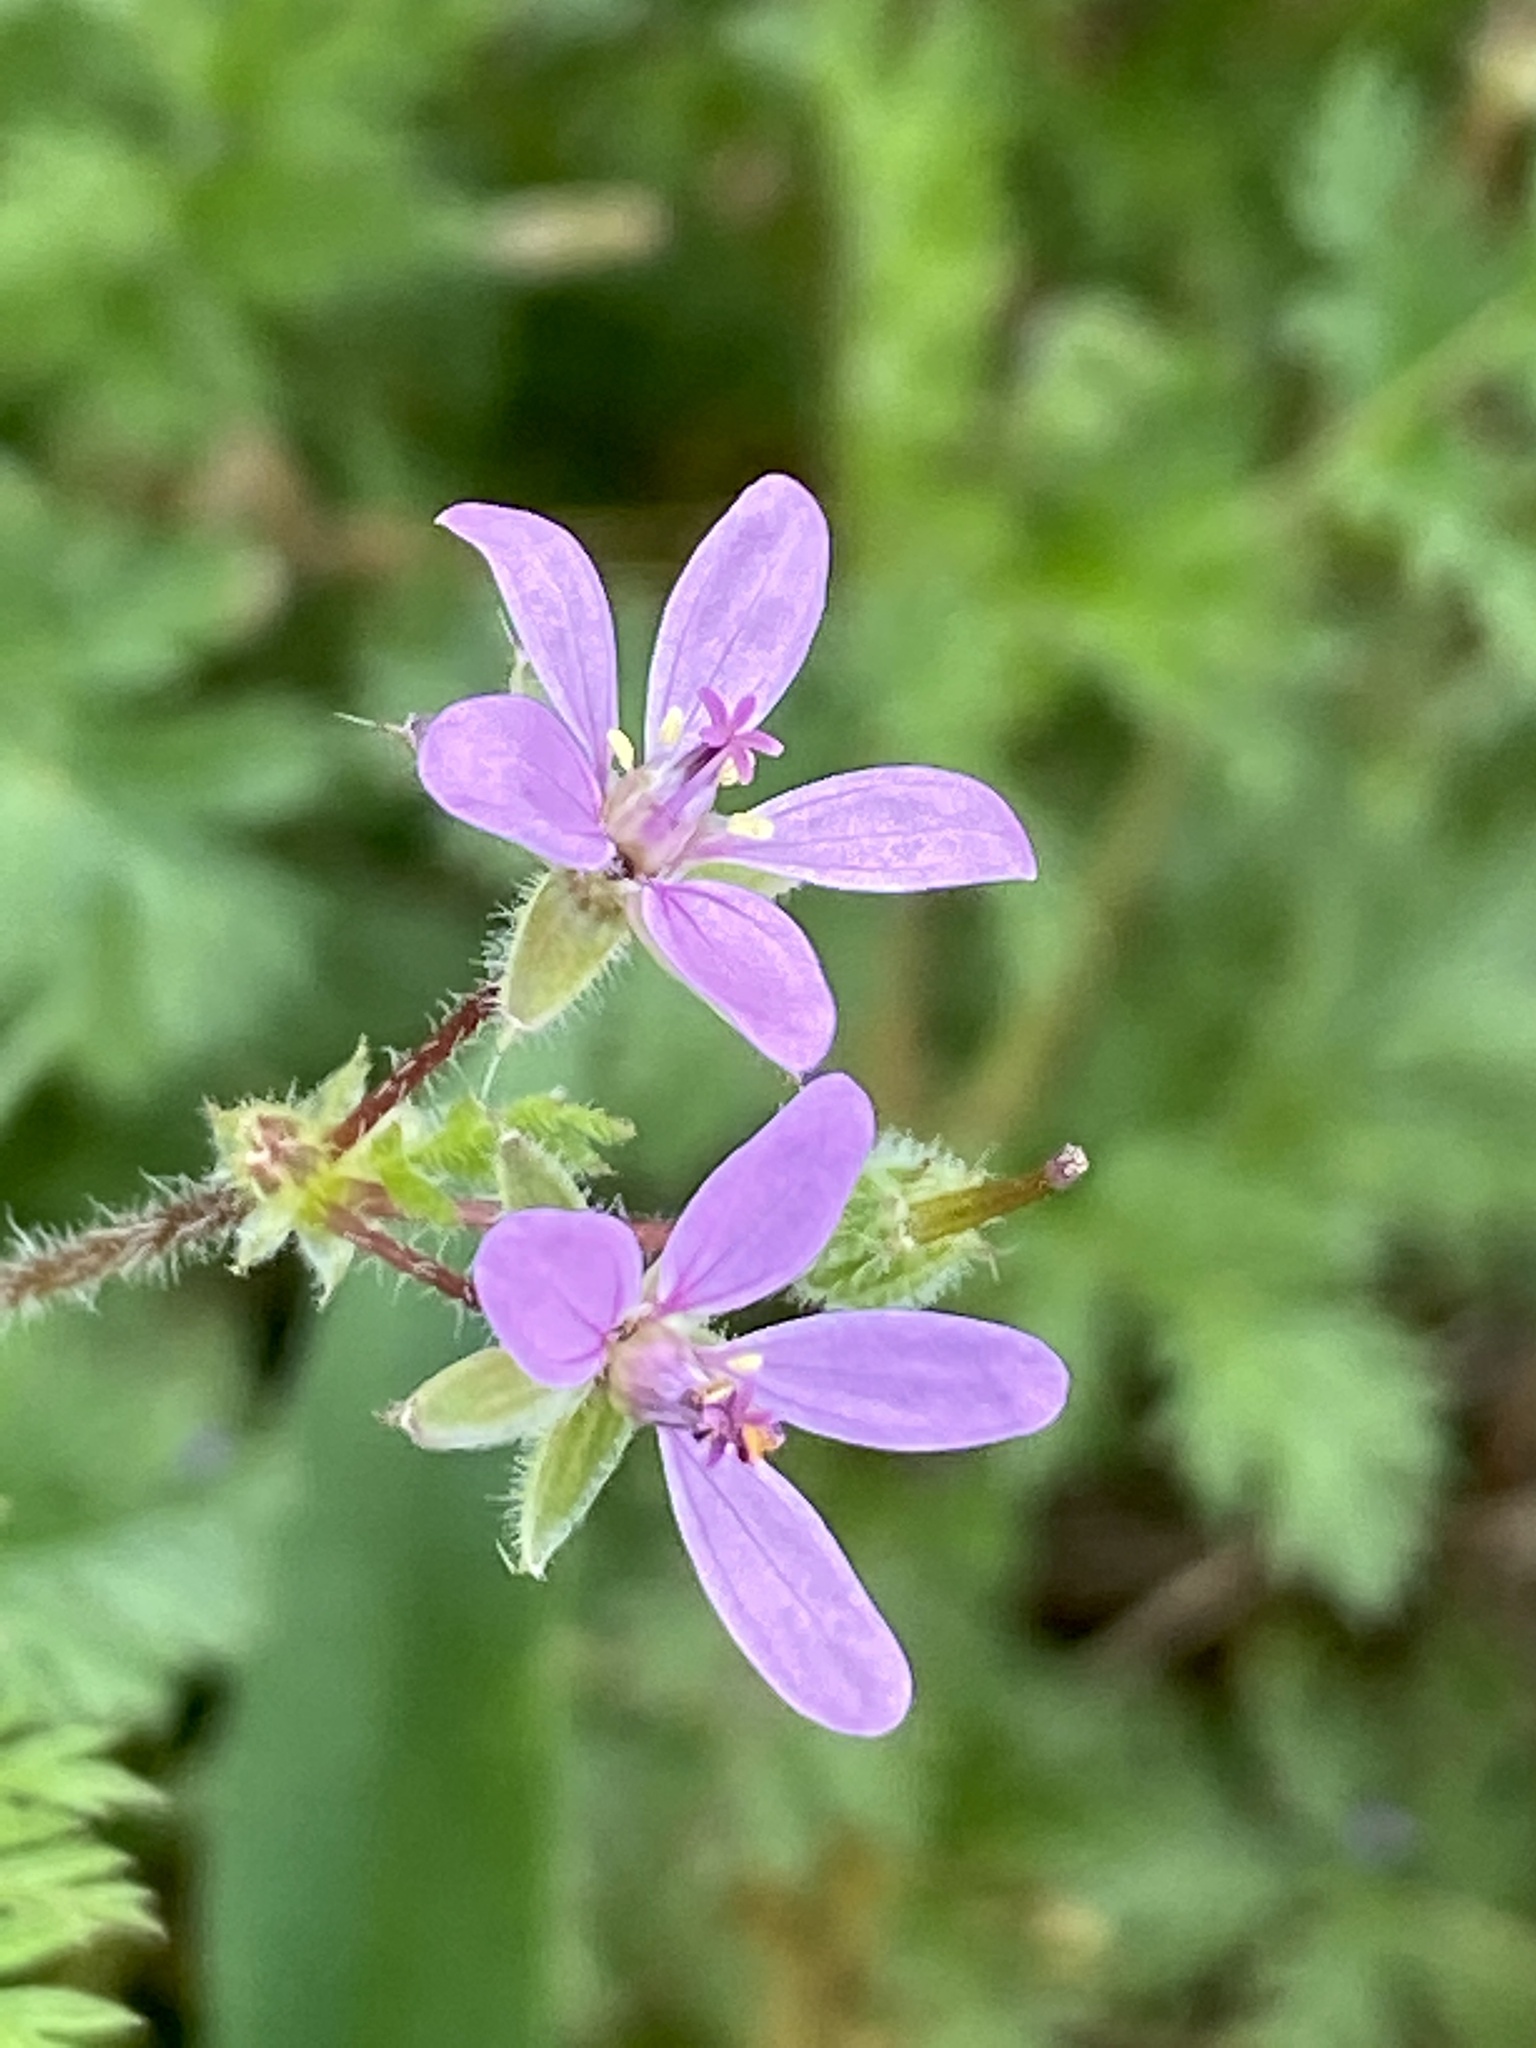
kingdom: Plantae
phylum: Tracheophyta
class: Magnoliopsida
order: Geraniales
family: Geraniaceae
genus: Erodium
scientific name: Erodium cicutarium
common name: Common stork's-bill
